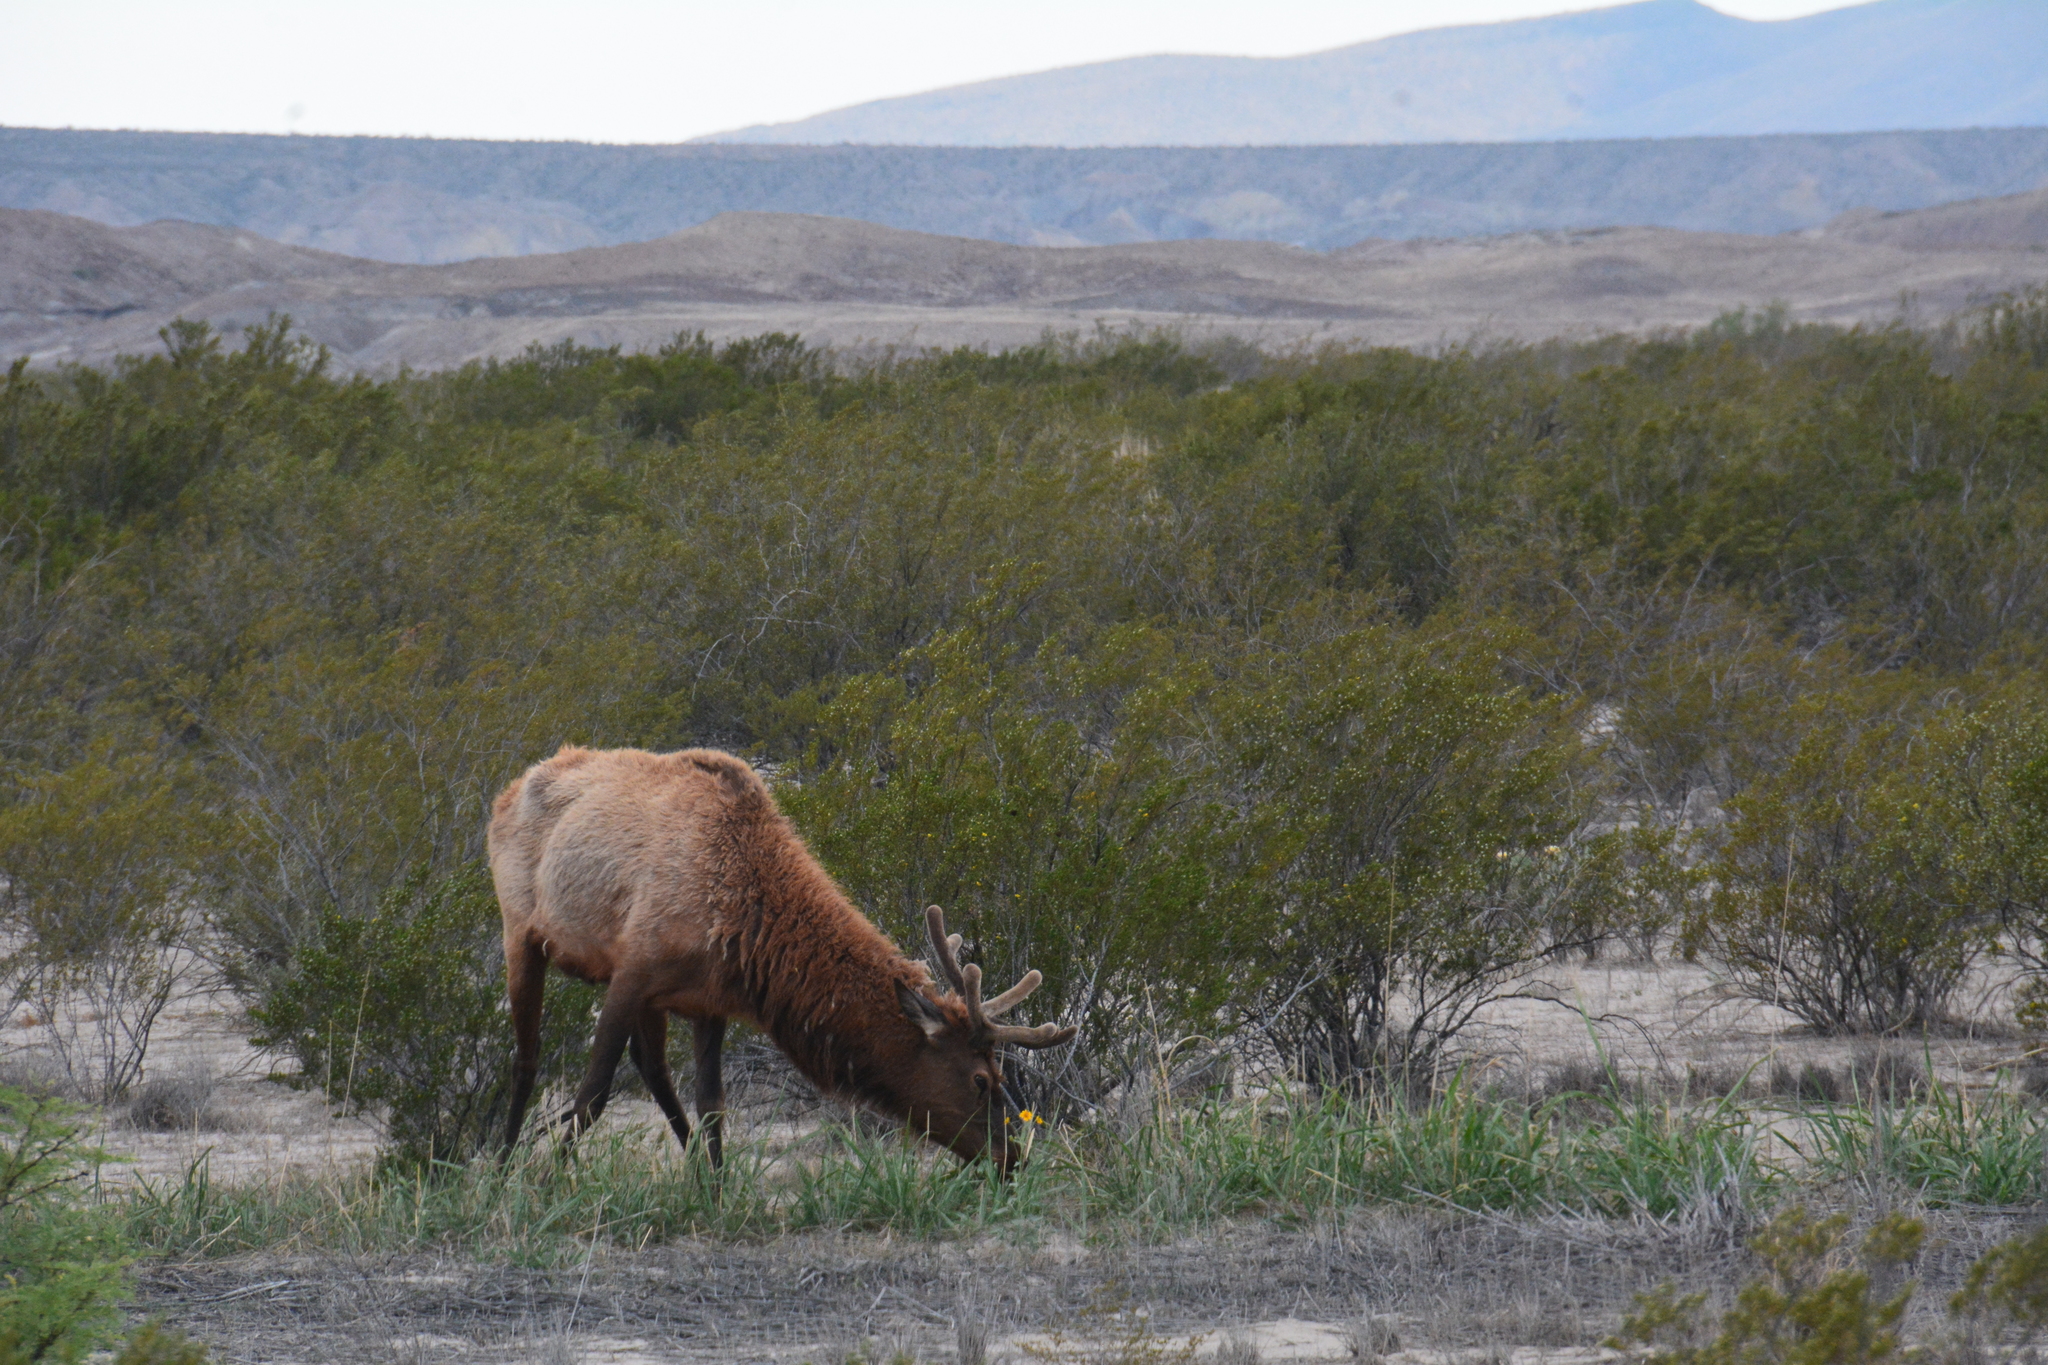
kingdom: Animalia
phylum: Chordata
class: Mammalia
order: Artiodactyla
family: Cervidae
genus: Cervus
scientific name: Cervus elaphus
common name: Red deer
